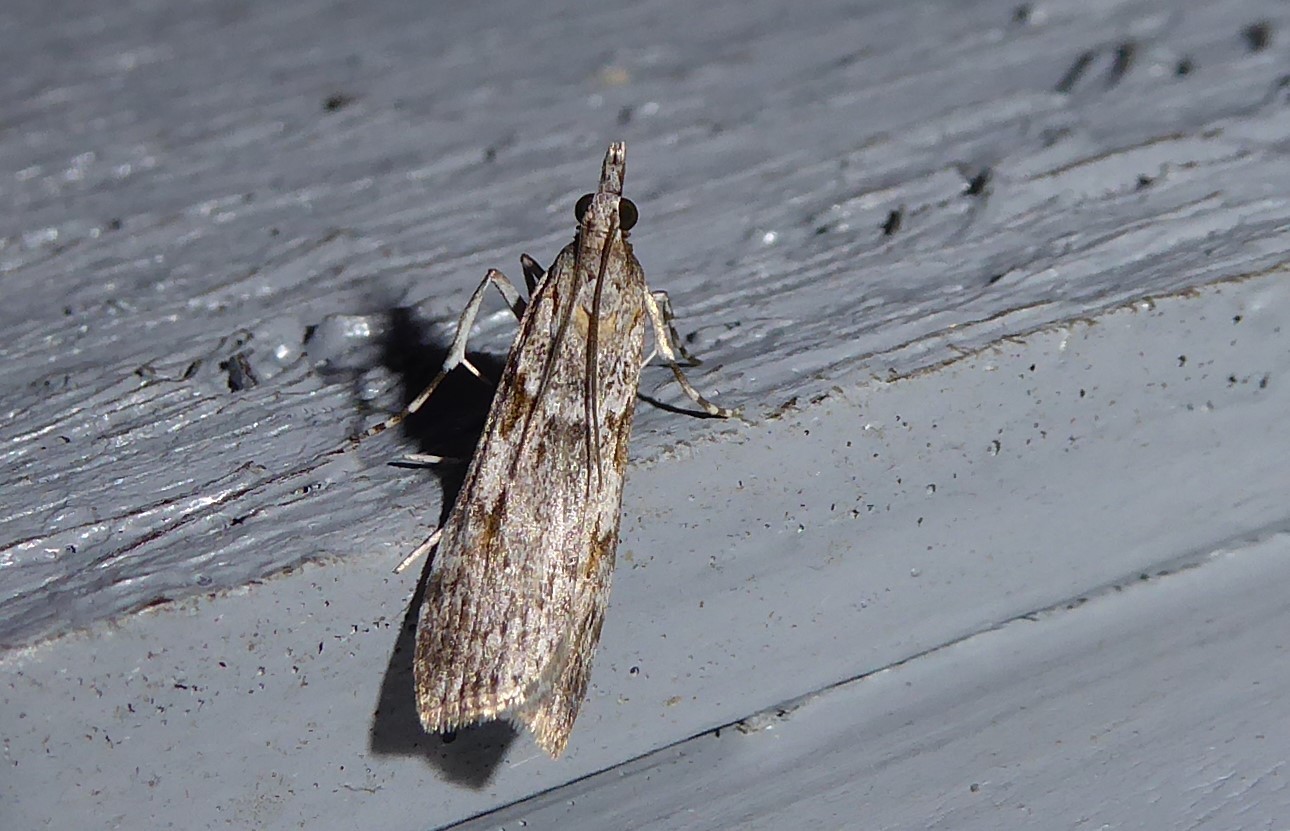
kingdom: Animalia
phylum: Arthropoda
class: Insecta
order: Lepidoptera
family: Crambidae
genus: Scoparia
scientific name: Scoparia halopis
